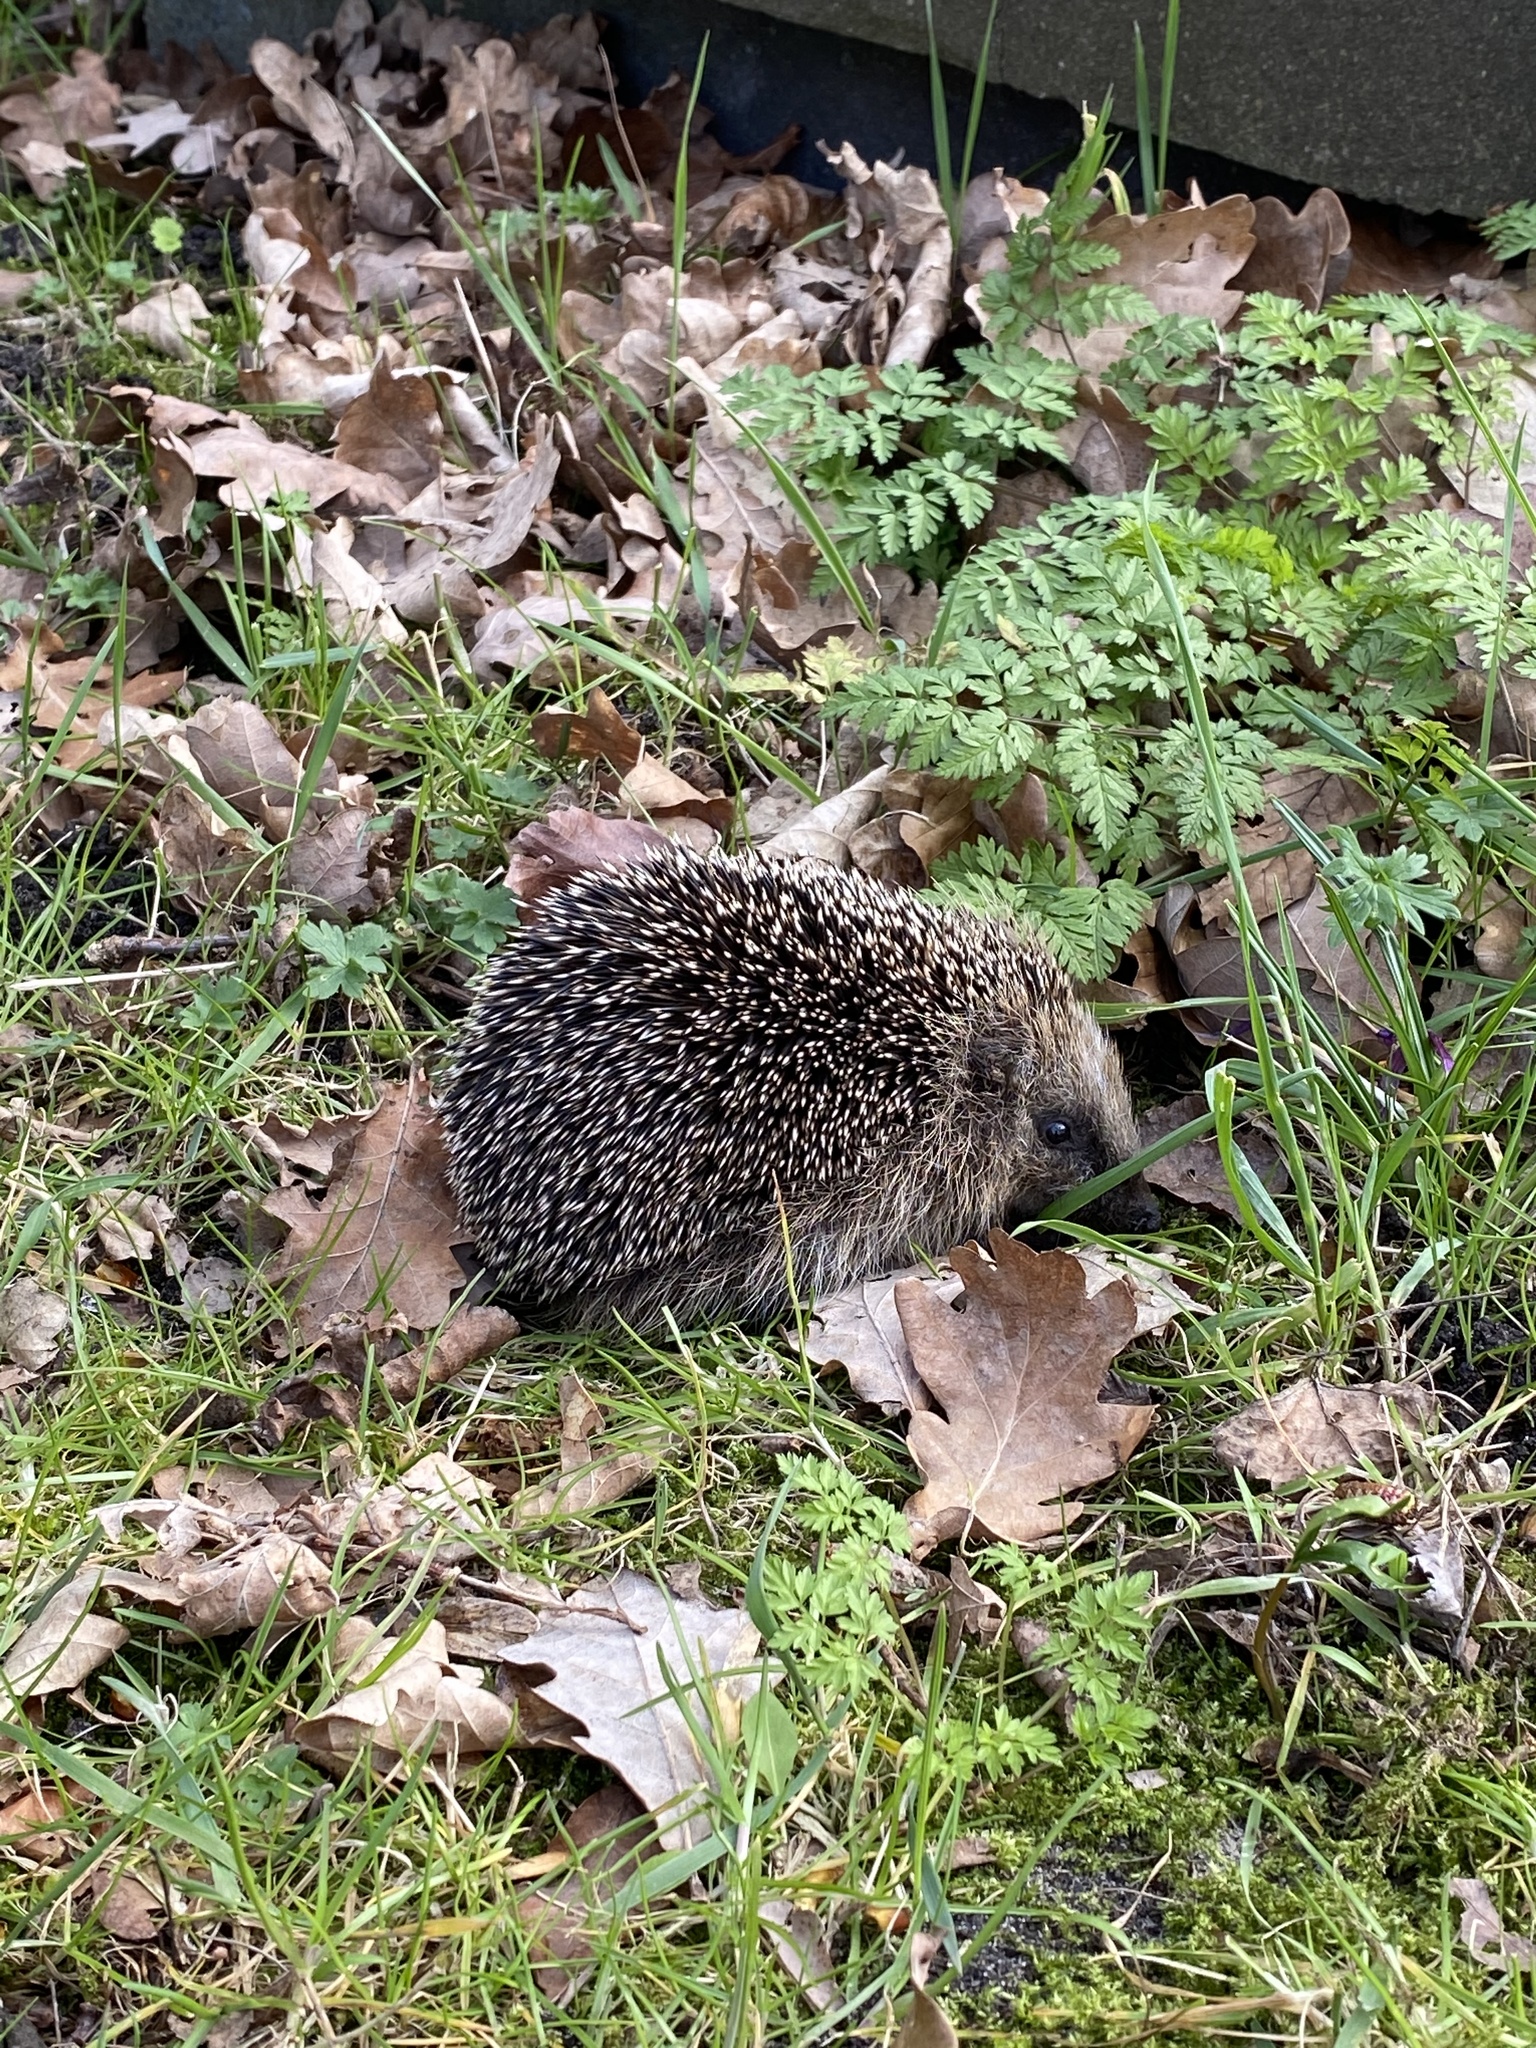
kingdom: Animalia
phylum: Chordata
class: Mammalia
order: Erinaceomorpha
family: Erinaceidae
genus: Erinaceus
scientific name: Erinaceus europaeus
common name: West european hedgehog
